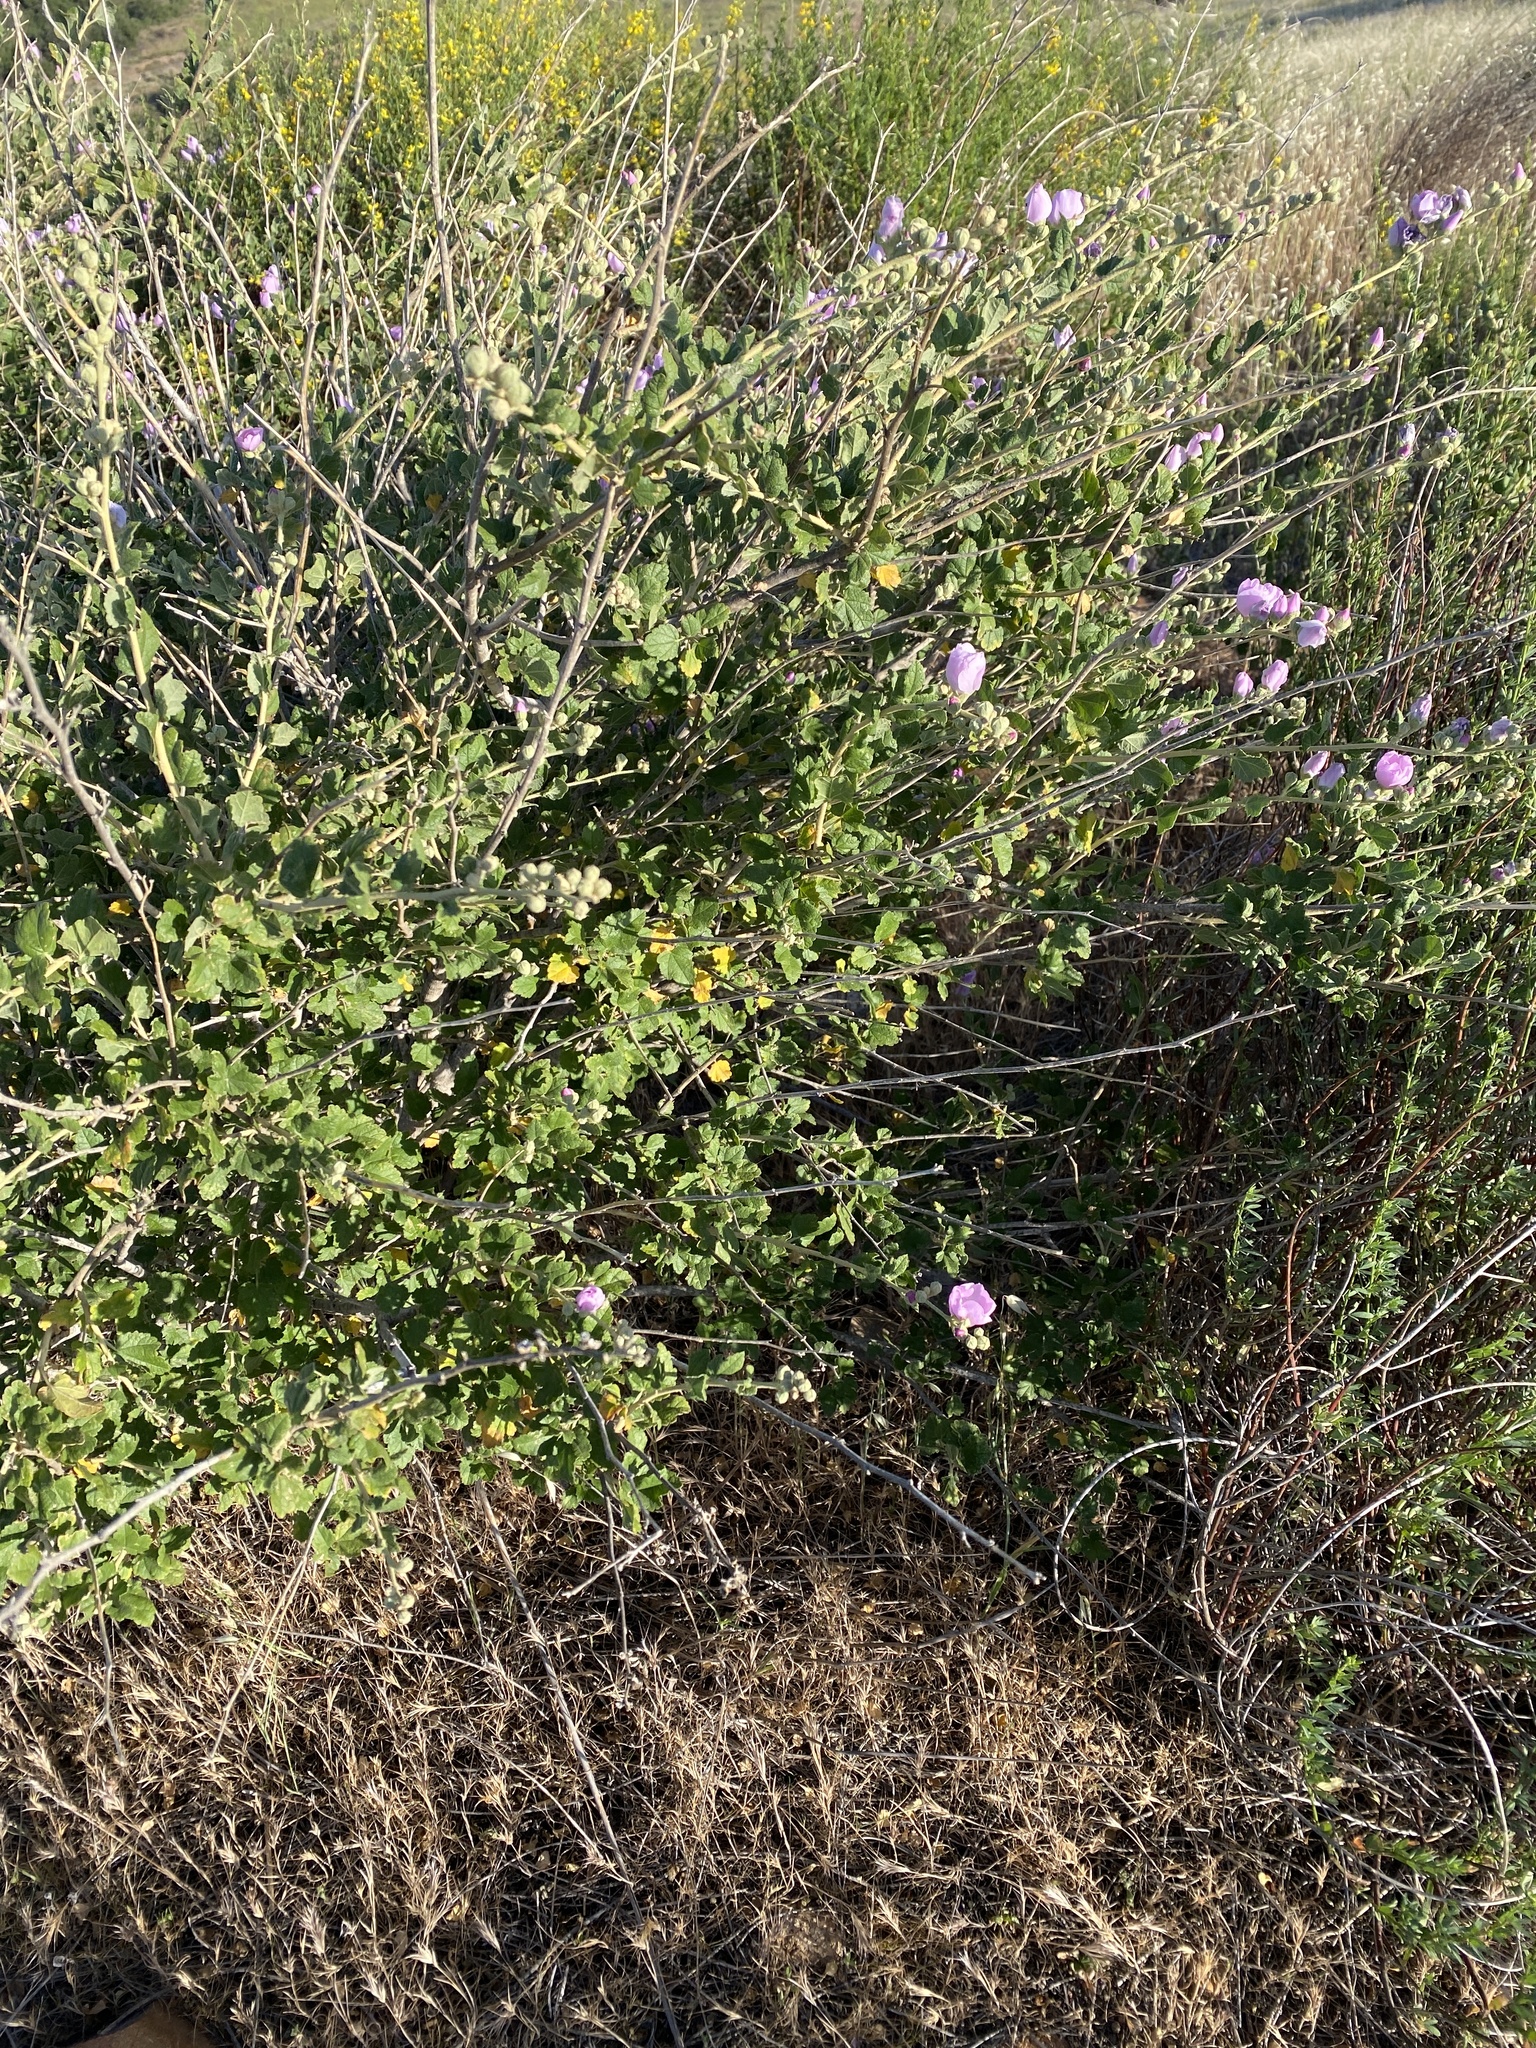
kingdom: Plantae
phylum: Tracheophyta
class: Magnoliopsida
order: Malvales
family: Malvaceae
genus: Malacothamnus
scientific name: Malacothamnus fasciculatus
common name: Sant cruz island bush-mallow
